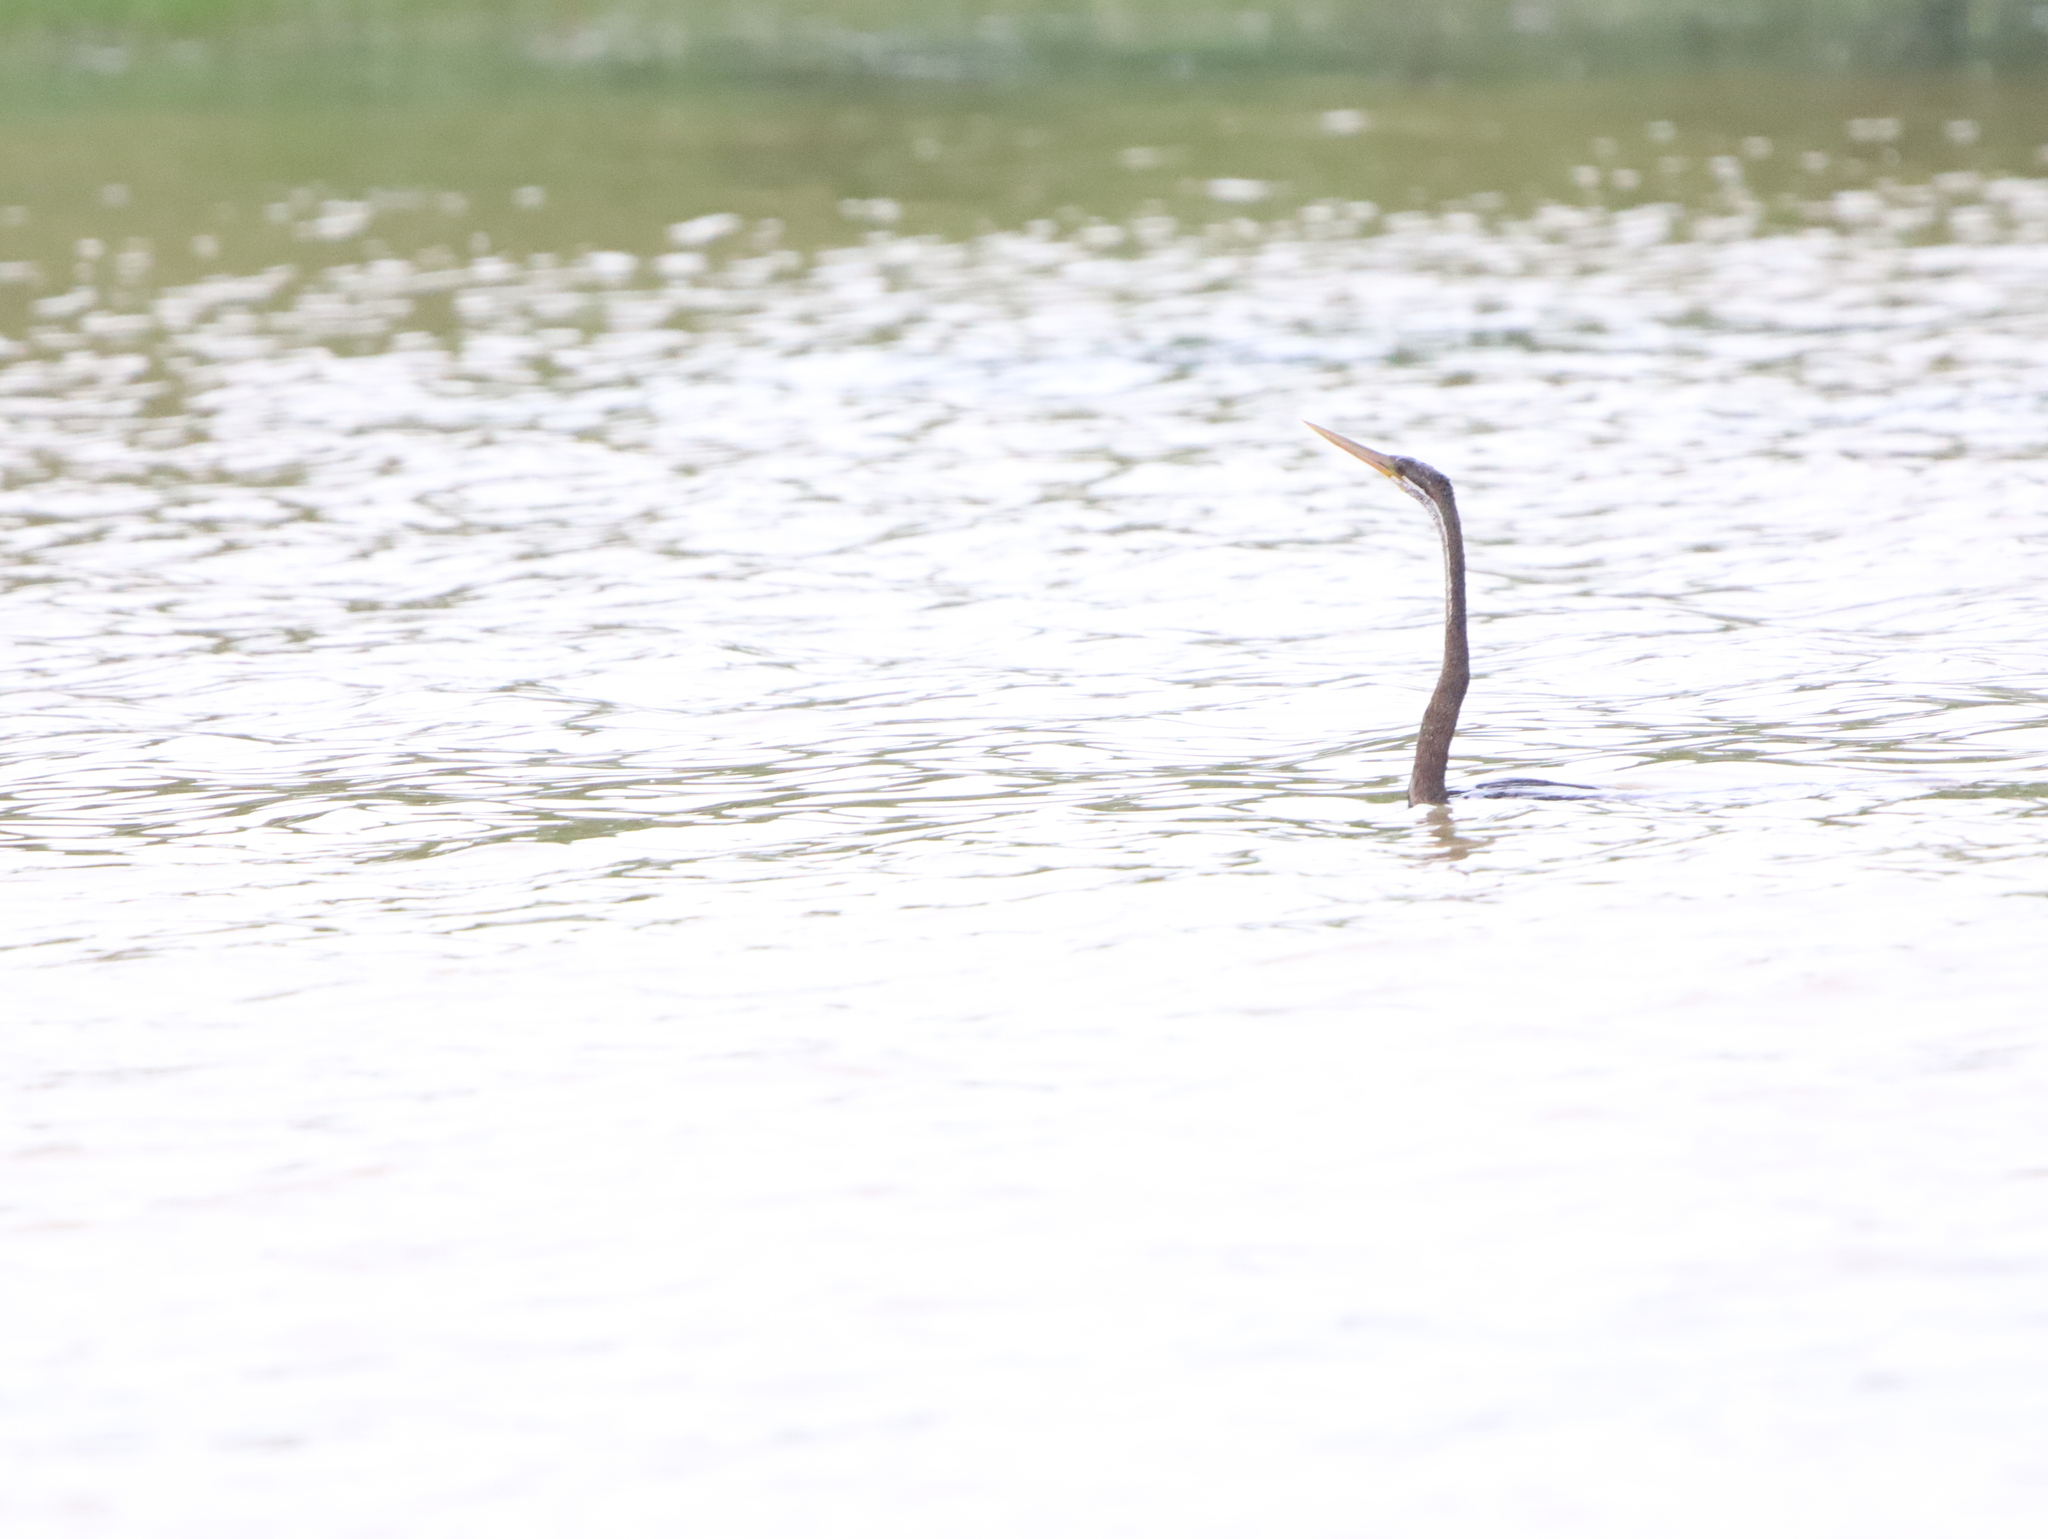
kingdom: Animalia
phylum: Chordata
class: Aves
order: Suliformes
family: Anhingidae
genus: Anhinga
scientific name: Anhinga melanogaster
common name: Oriental darter
